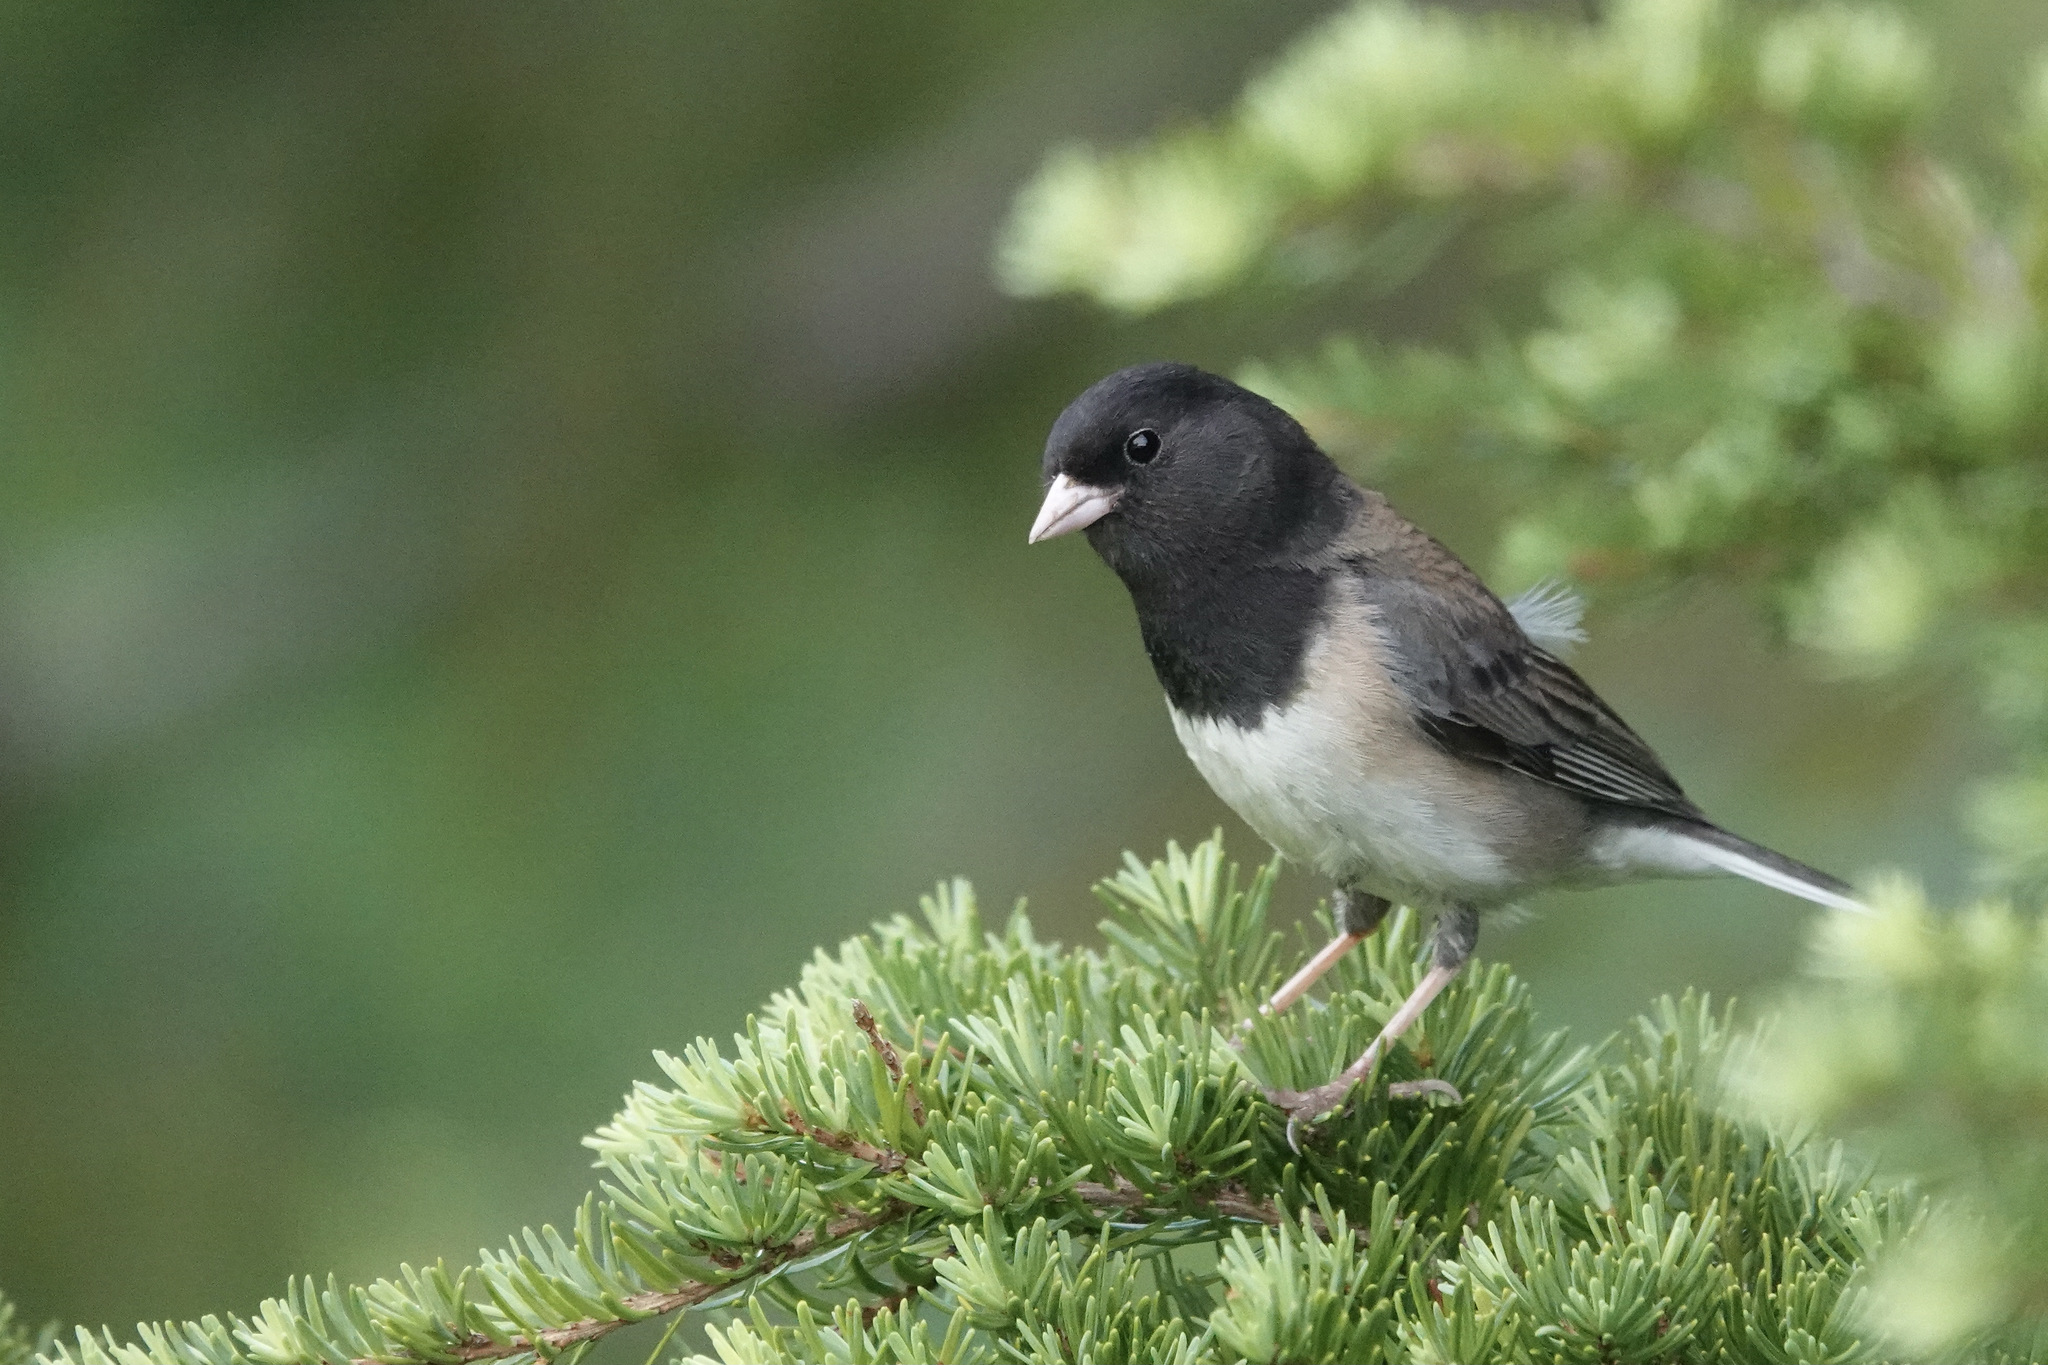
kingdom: Animalia
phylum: Chordata
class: Aves
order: Passeriformes
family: Passerellidae
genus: Junco
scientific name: Junco hyemalis
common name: Dark-eyed junco
